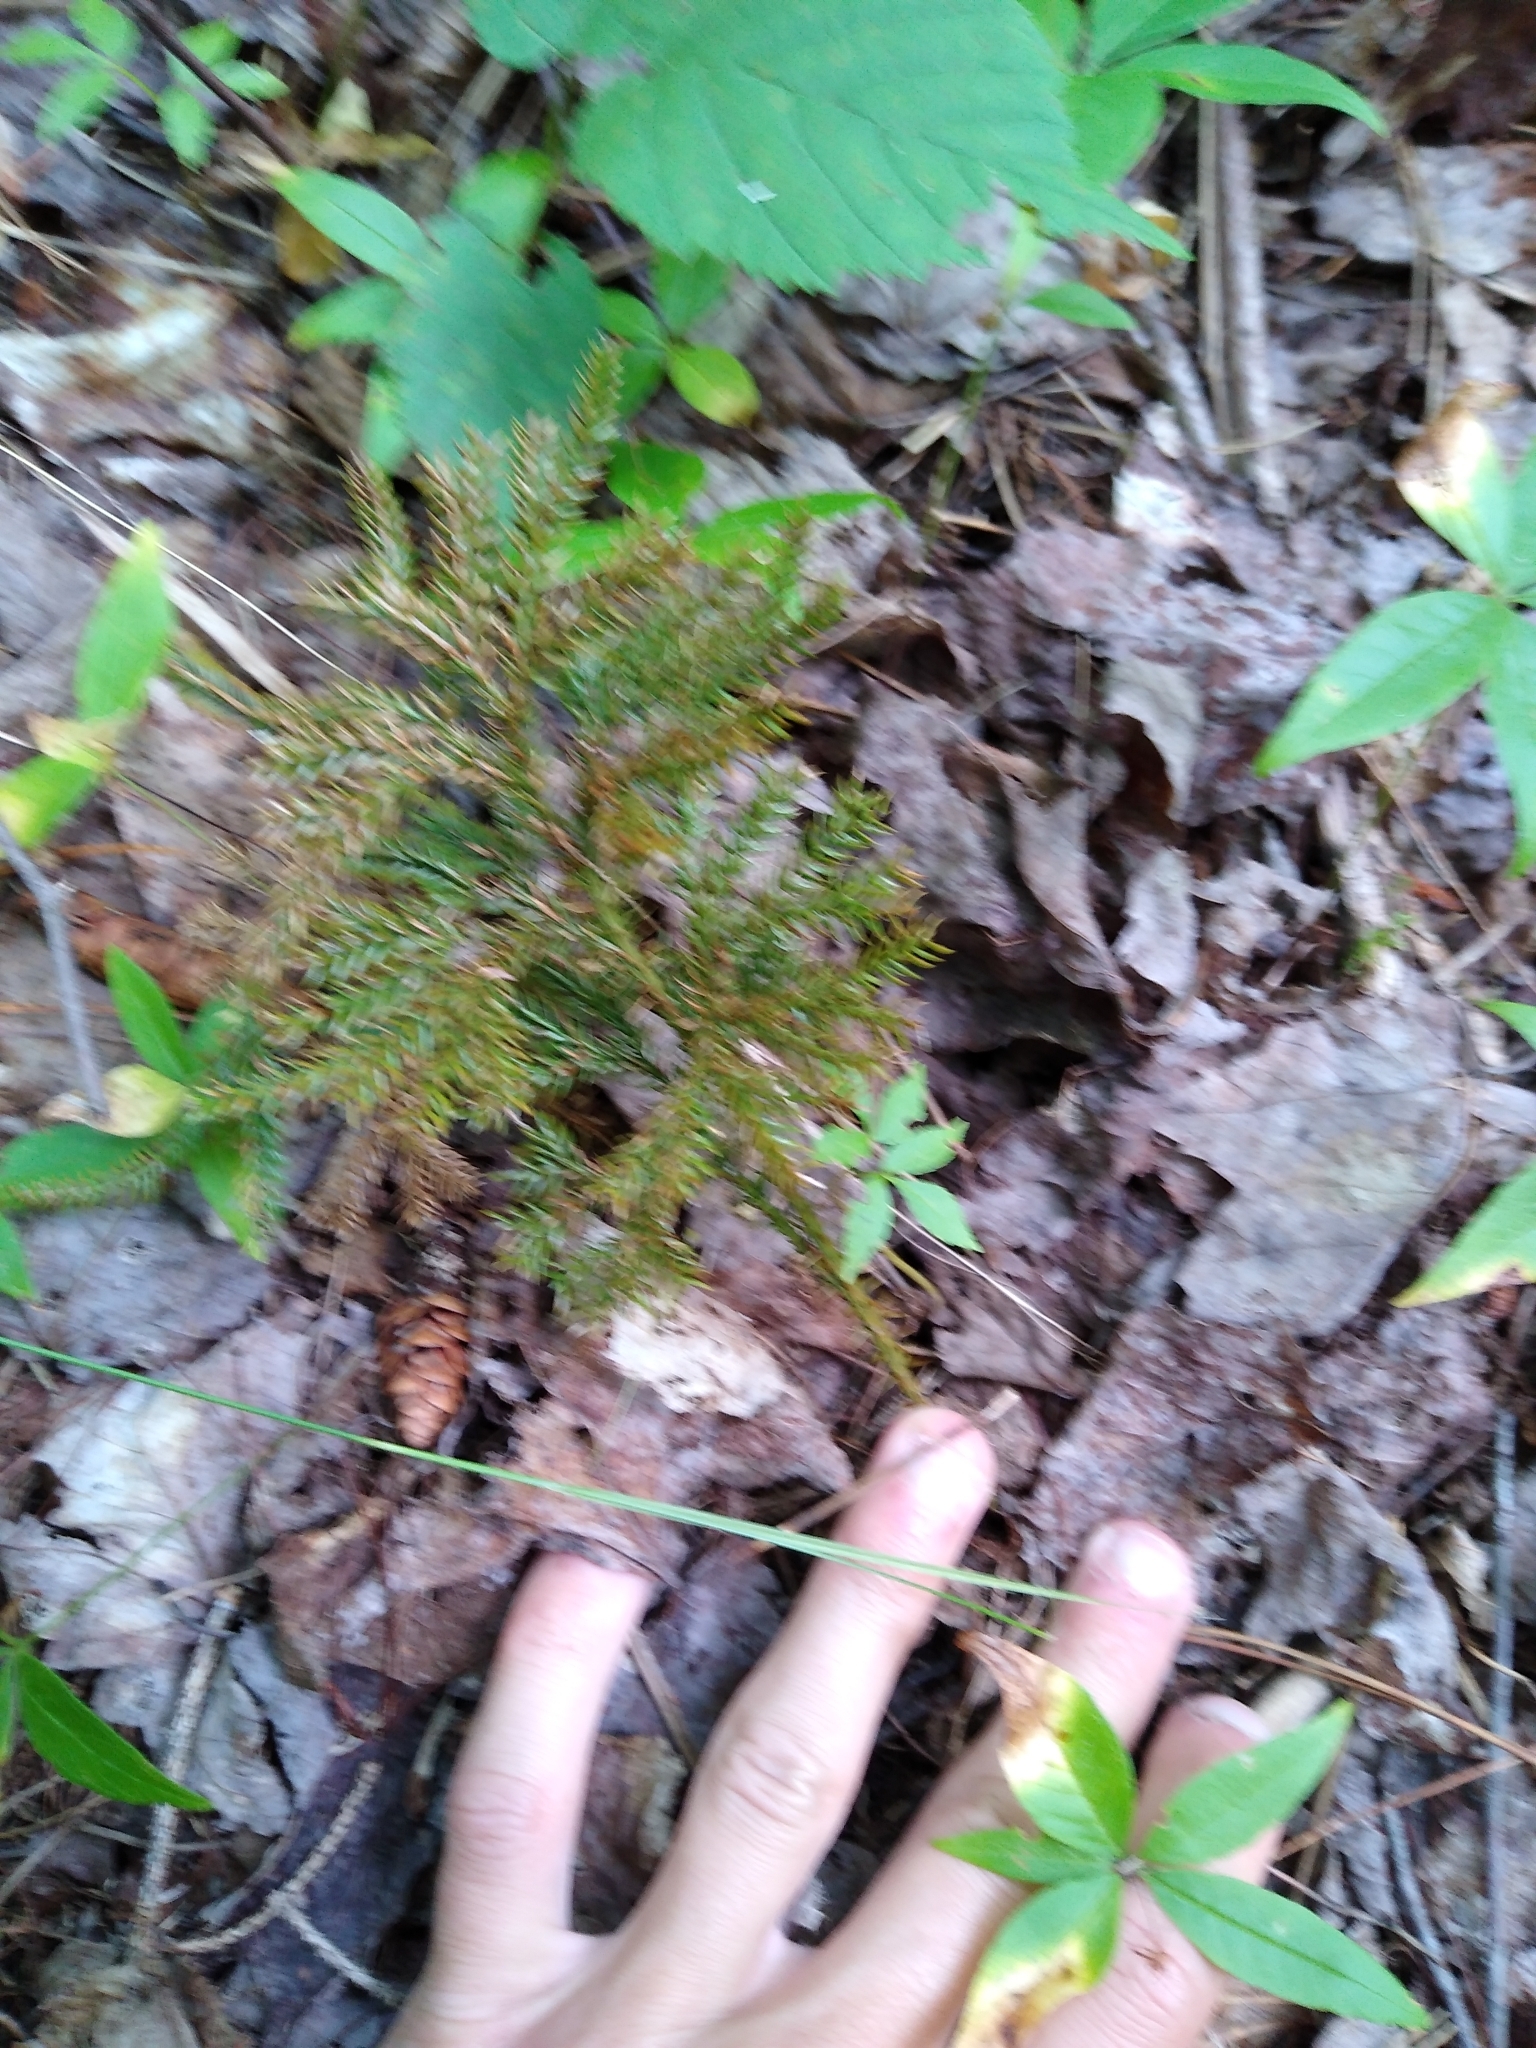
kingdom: Plantae
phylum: Tracheophyta
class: Lycopodiopsida
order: Lycopodiales
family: Lycopodiaceae
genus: Dendrolycopodium
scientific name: Dendrolycopodium dendroideum
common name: Northern tree-clubmoss
